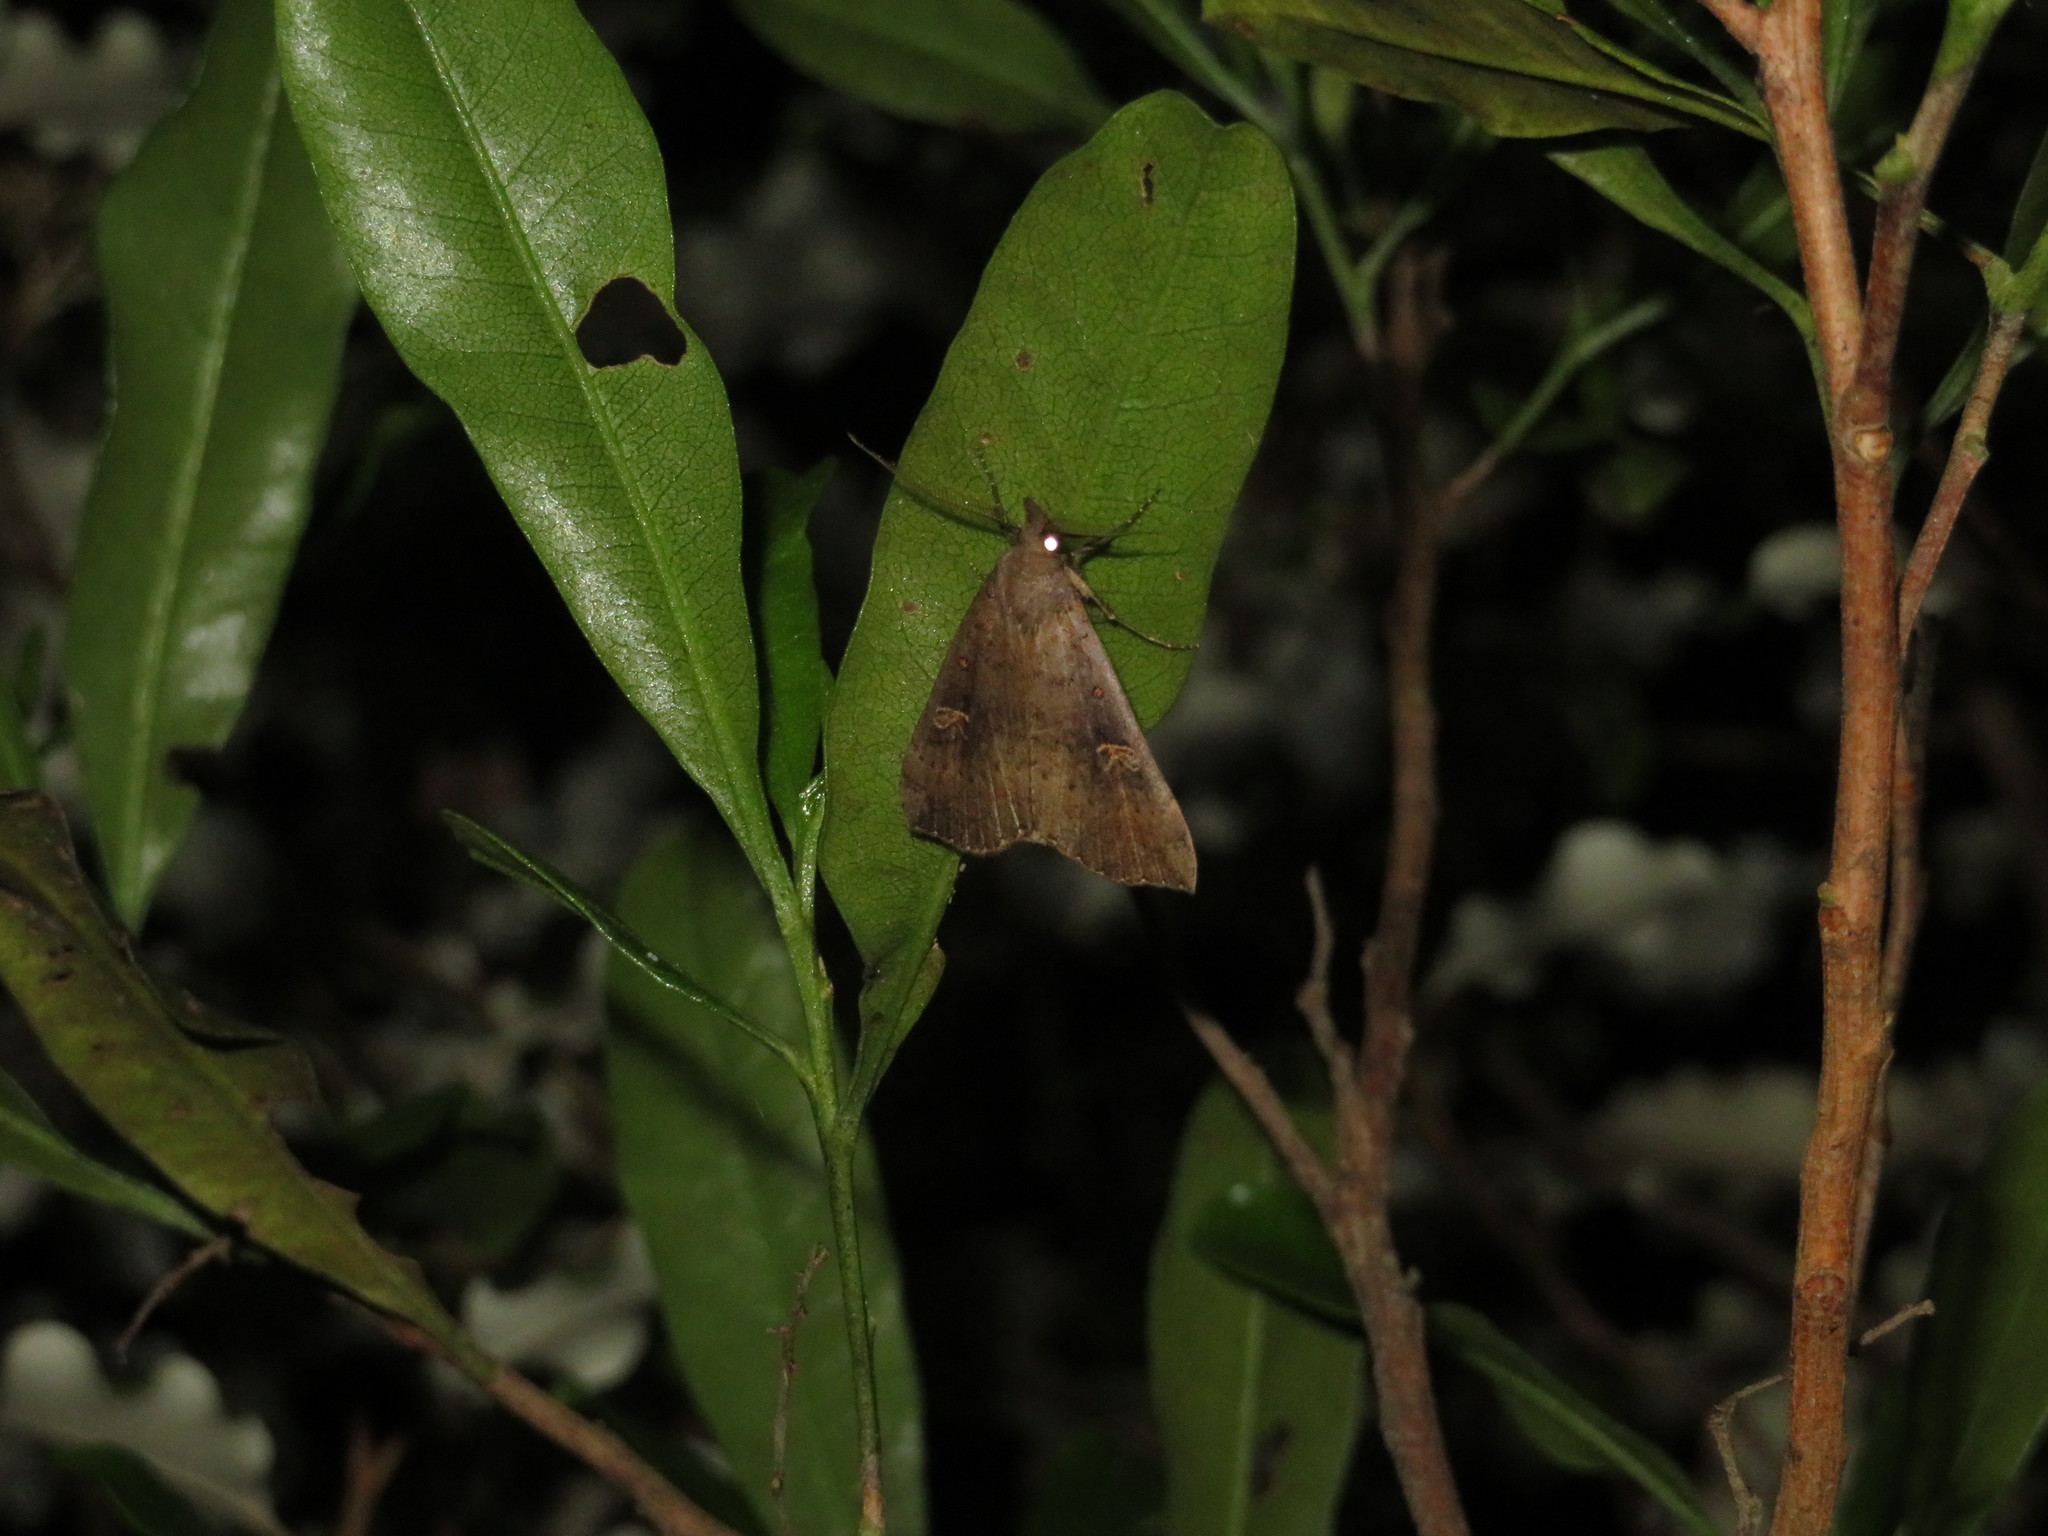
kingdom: Animalia
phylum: Arthropoda
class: Insecta
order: Lepidoptera
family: Erebidae
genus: Rhapsa
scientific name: Rhapsa scotosialis
